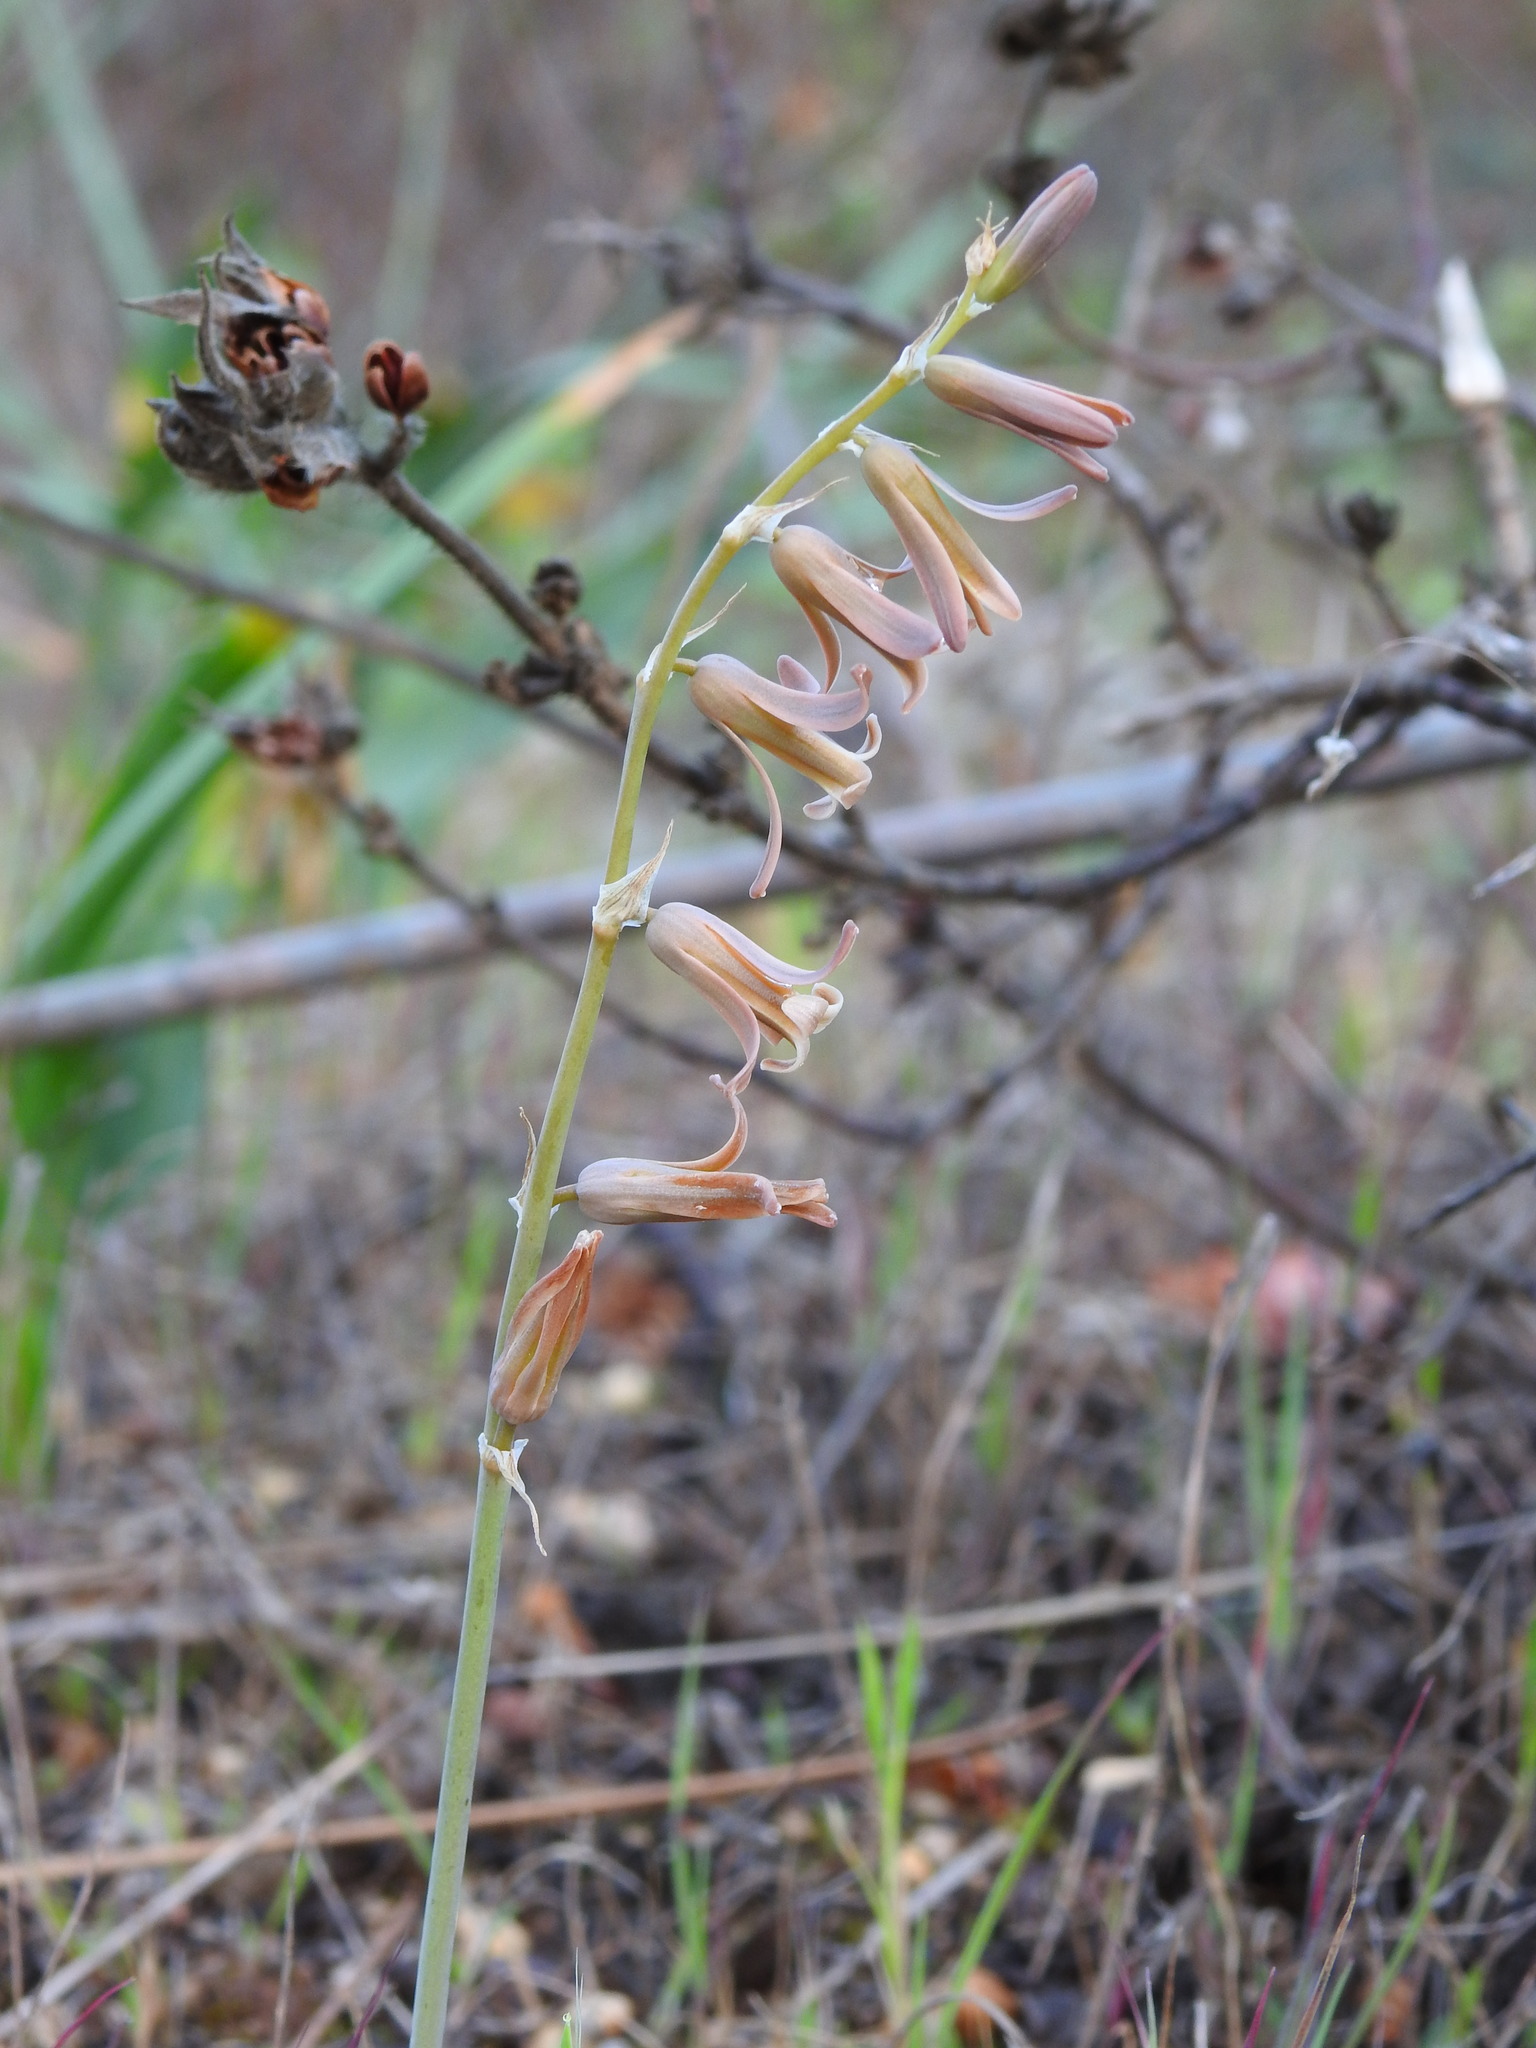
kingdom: Plantae
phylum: Tracheophyta
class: Liliopsida
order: Asparagales
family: Asparagaceae
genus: Dipcadi
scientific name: Dipcadi serotinum
